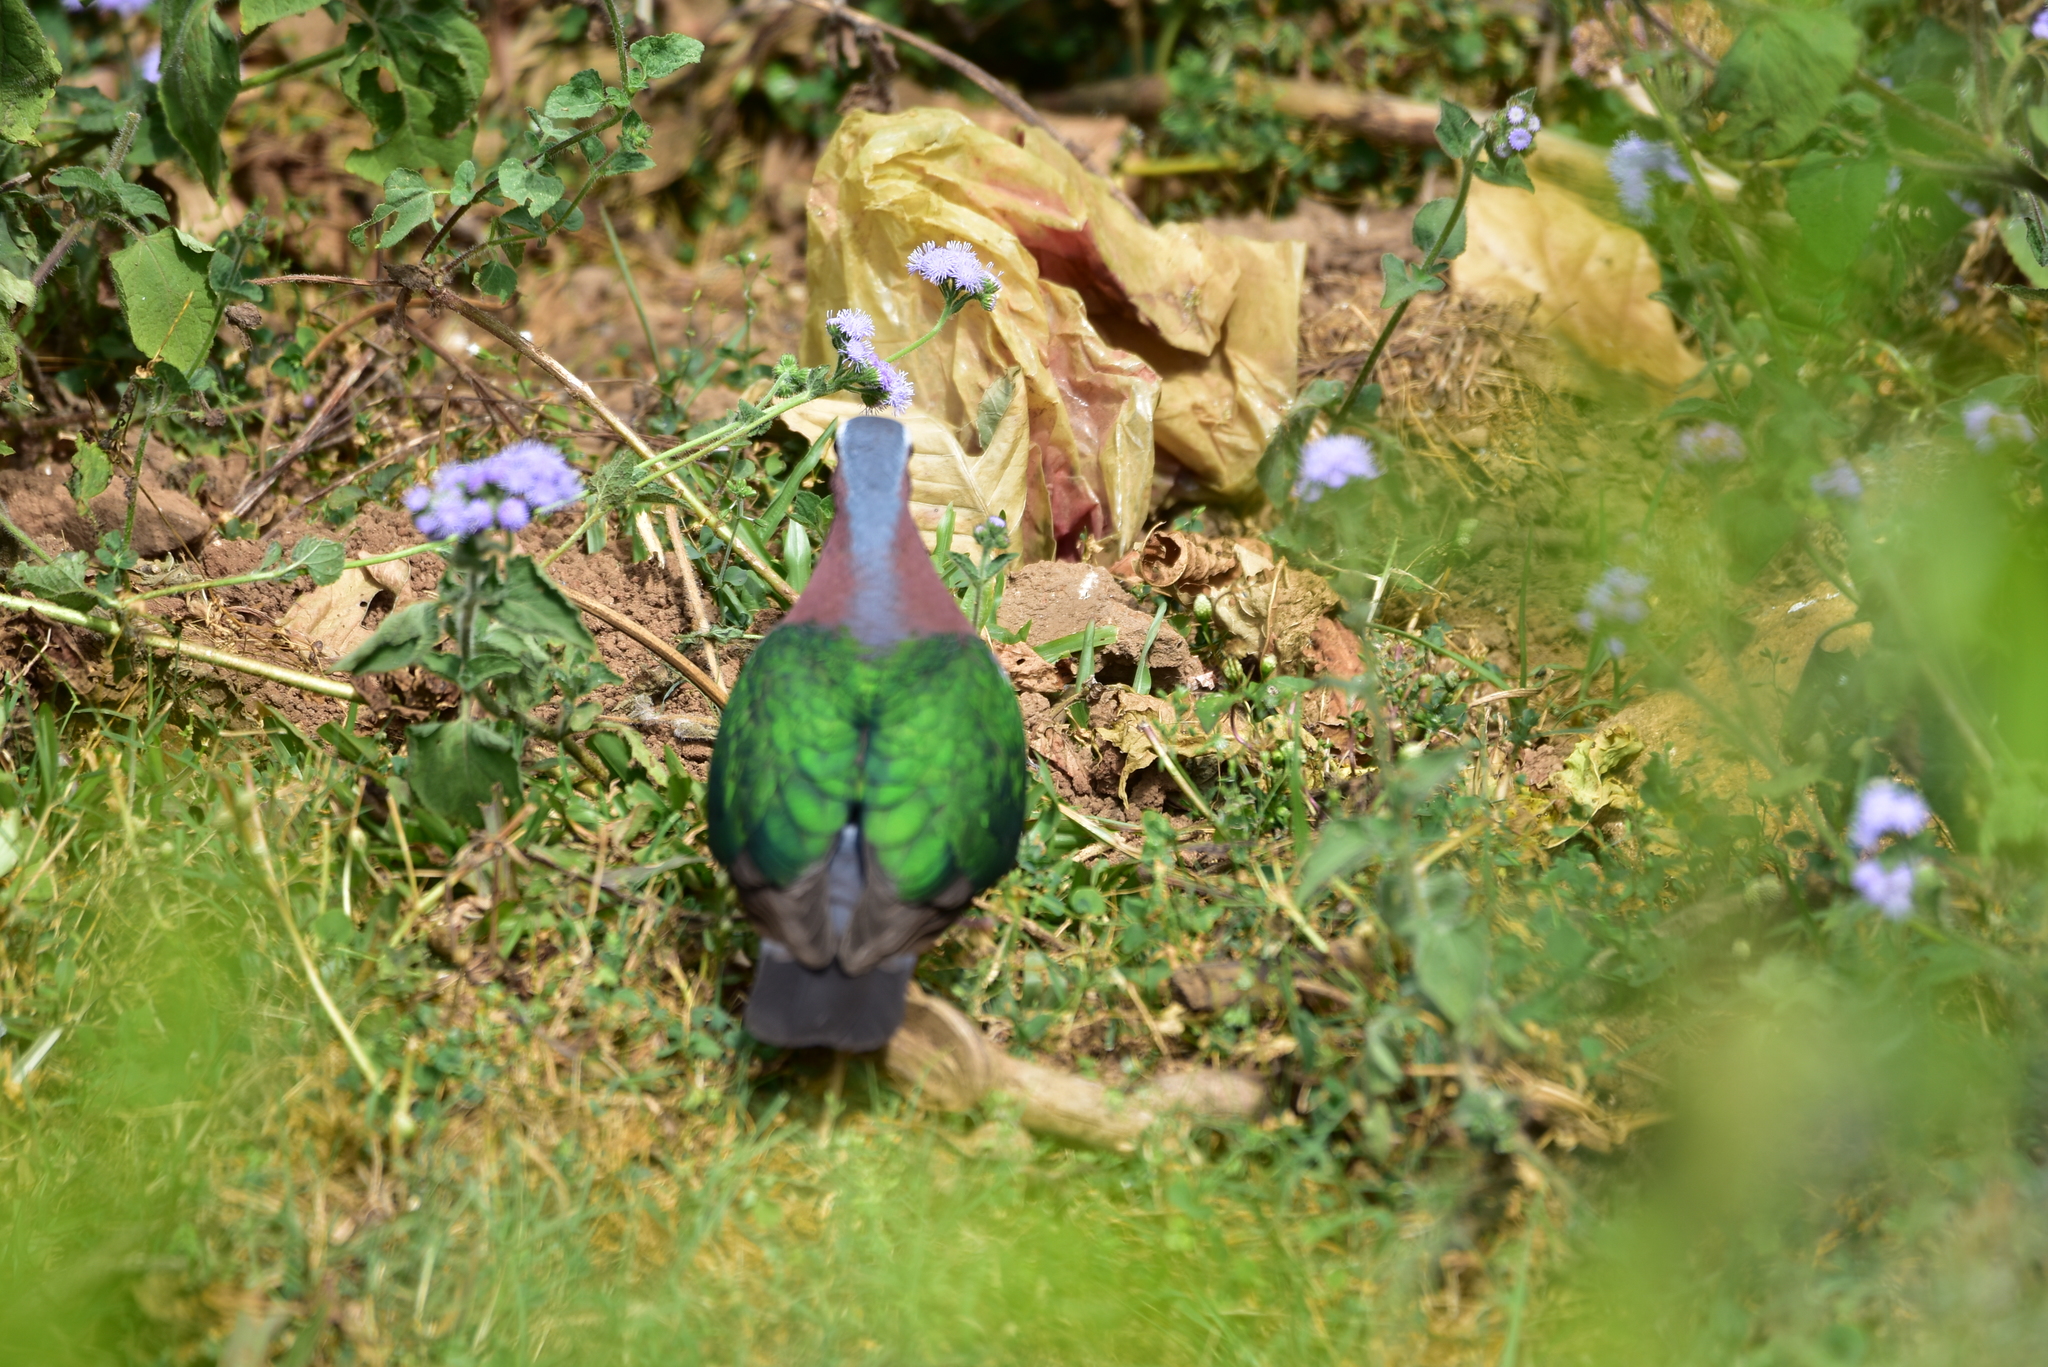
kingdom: Animalia
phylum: Chordata
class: Aves
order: Columbiformes
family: Columbidae
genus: Chalcophaps
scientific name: Chalcophaps indica
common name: Common emerald dove
